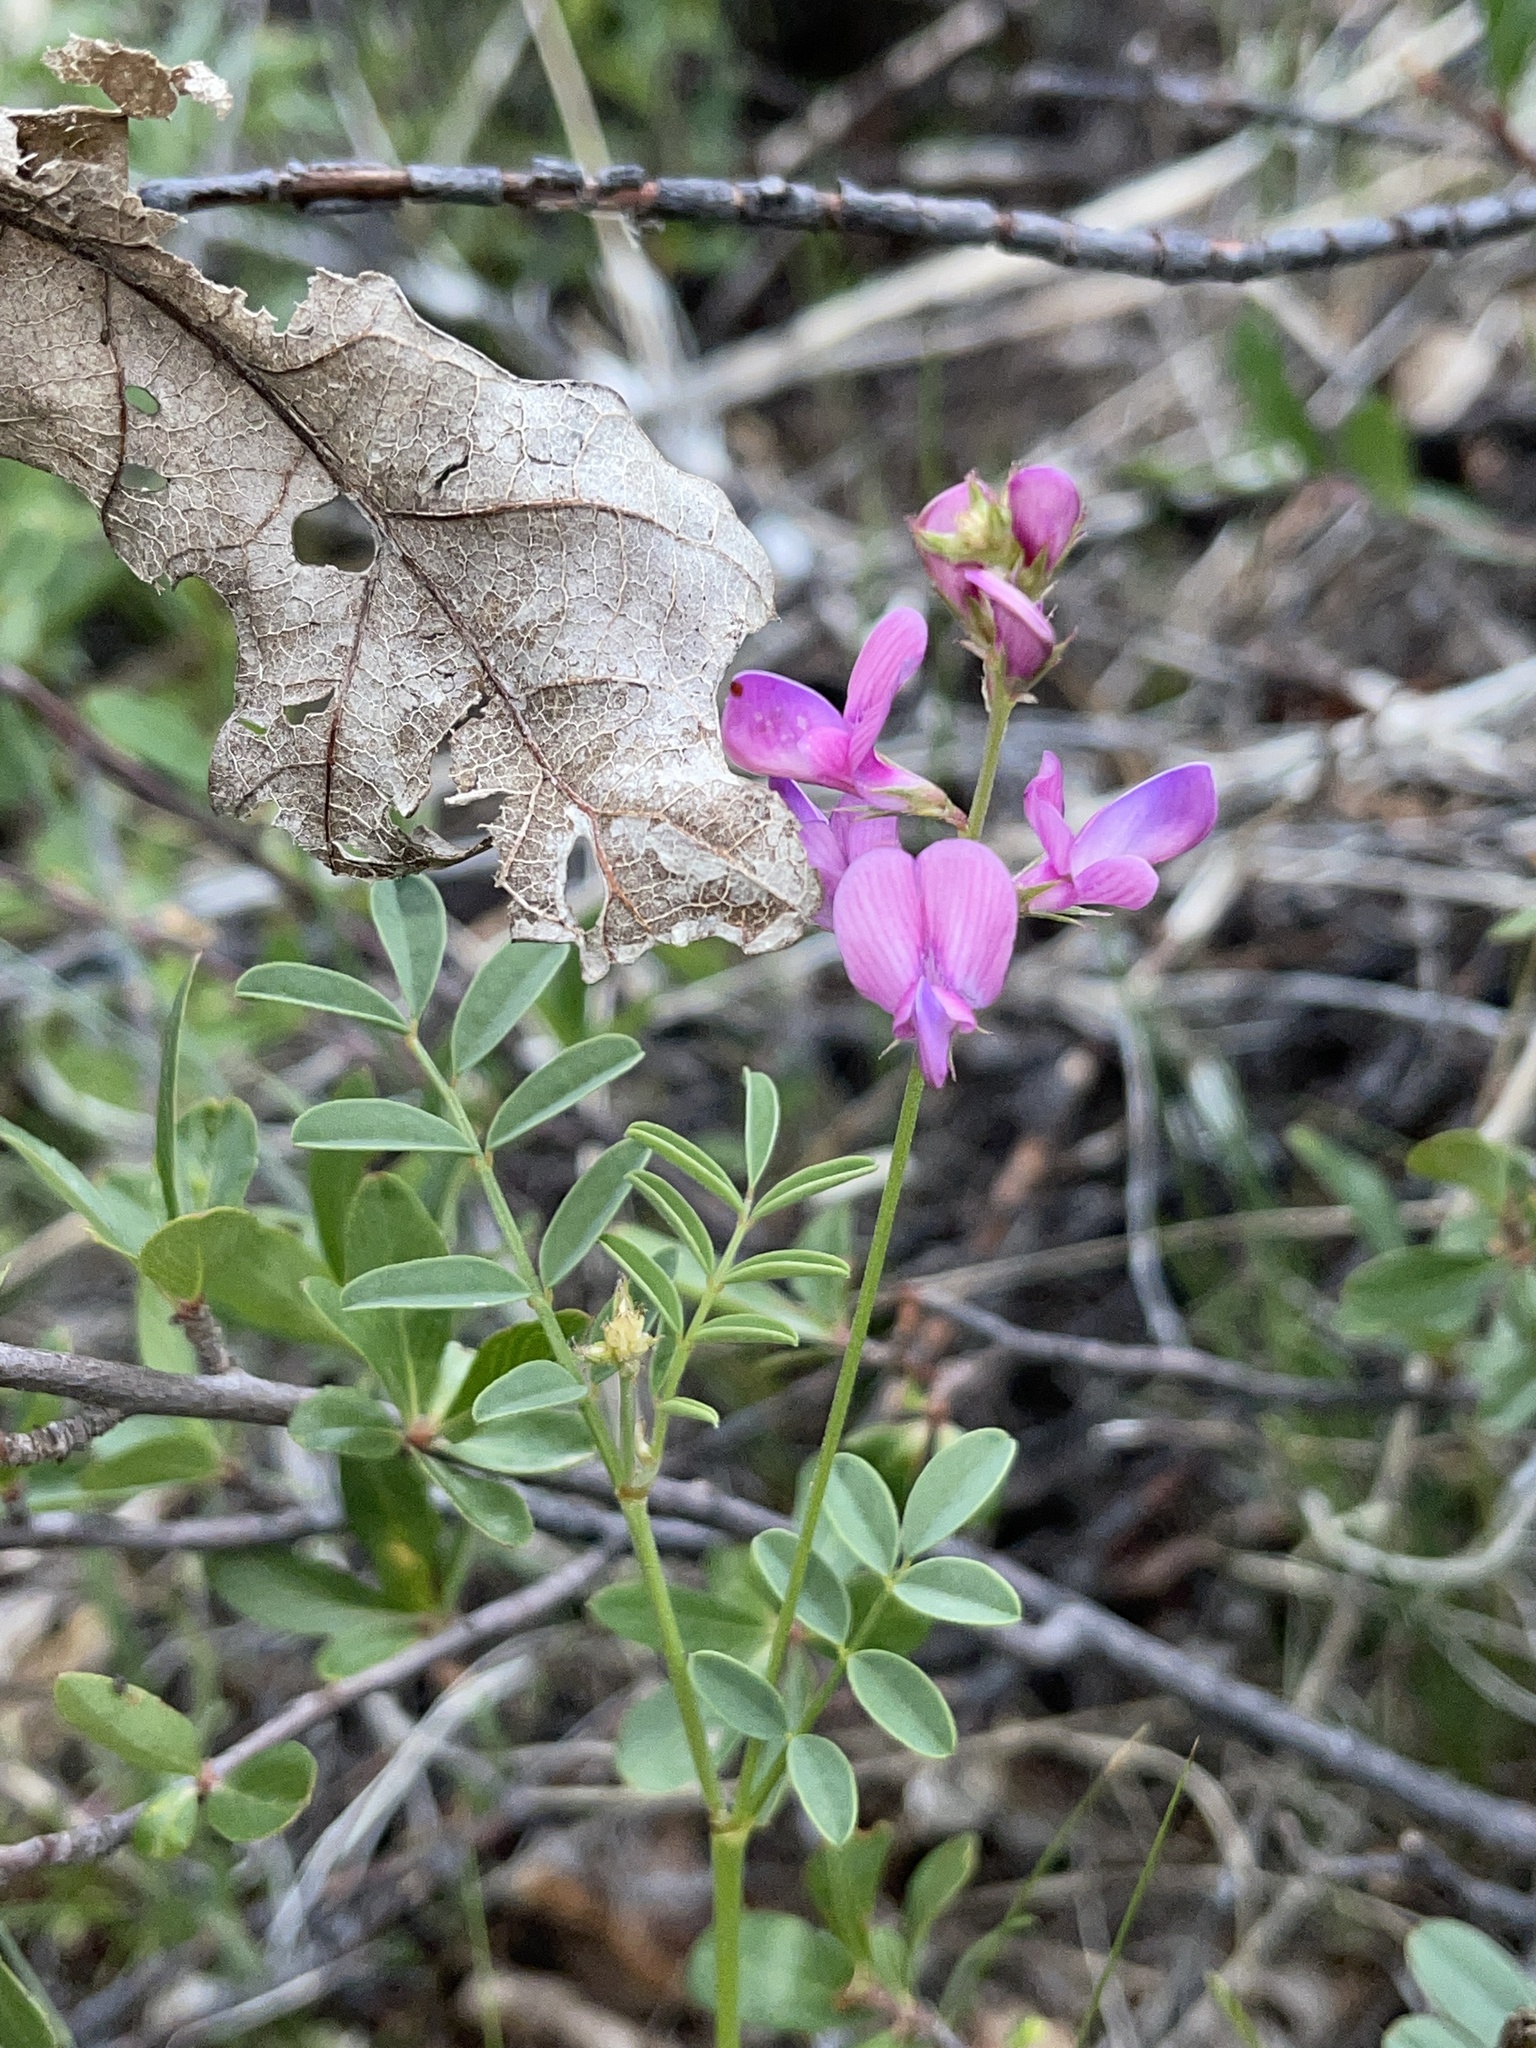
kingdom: Plantae
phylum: Tracheophyta
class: Magnoliopsida
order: Fabales
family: Fabaceae
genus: Hedysarum
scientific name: Hedysarum boreale
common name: Northern sweet-vetch
